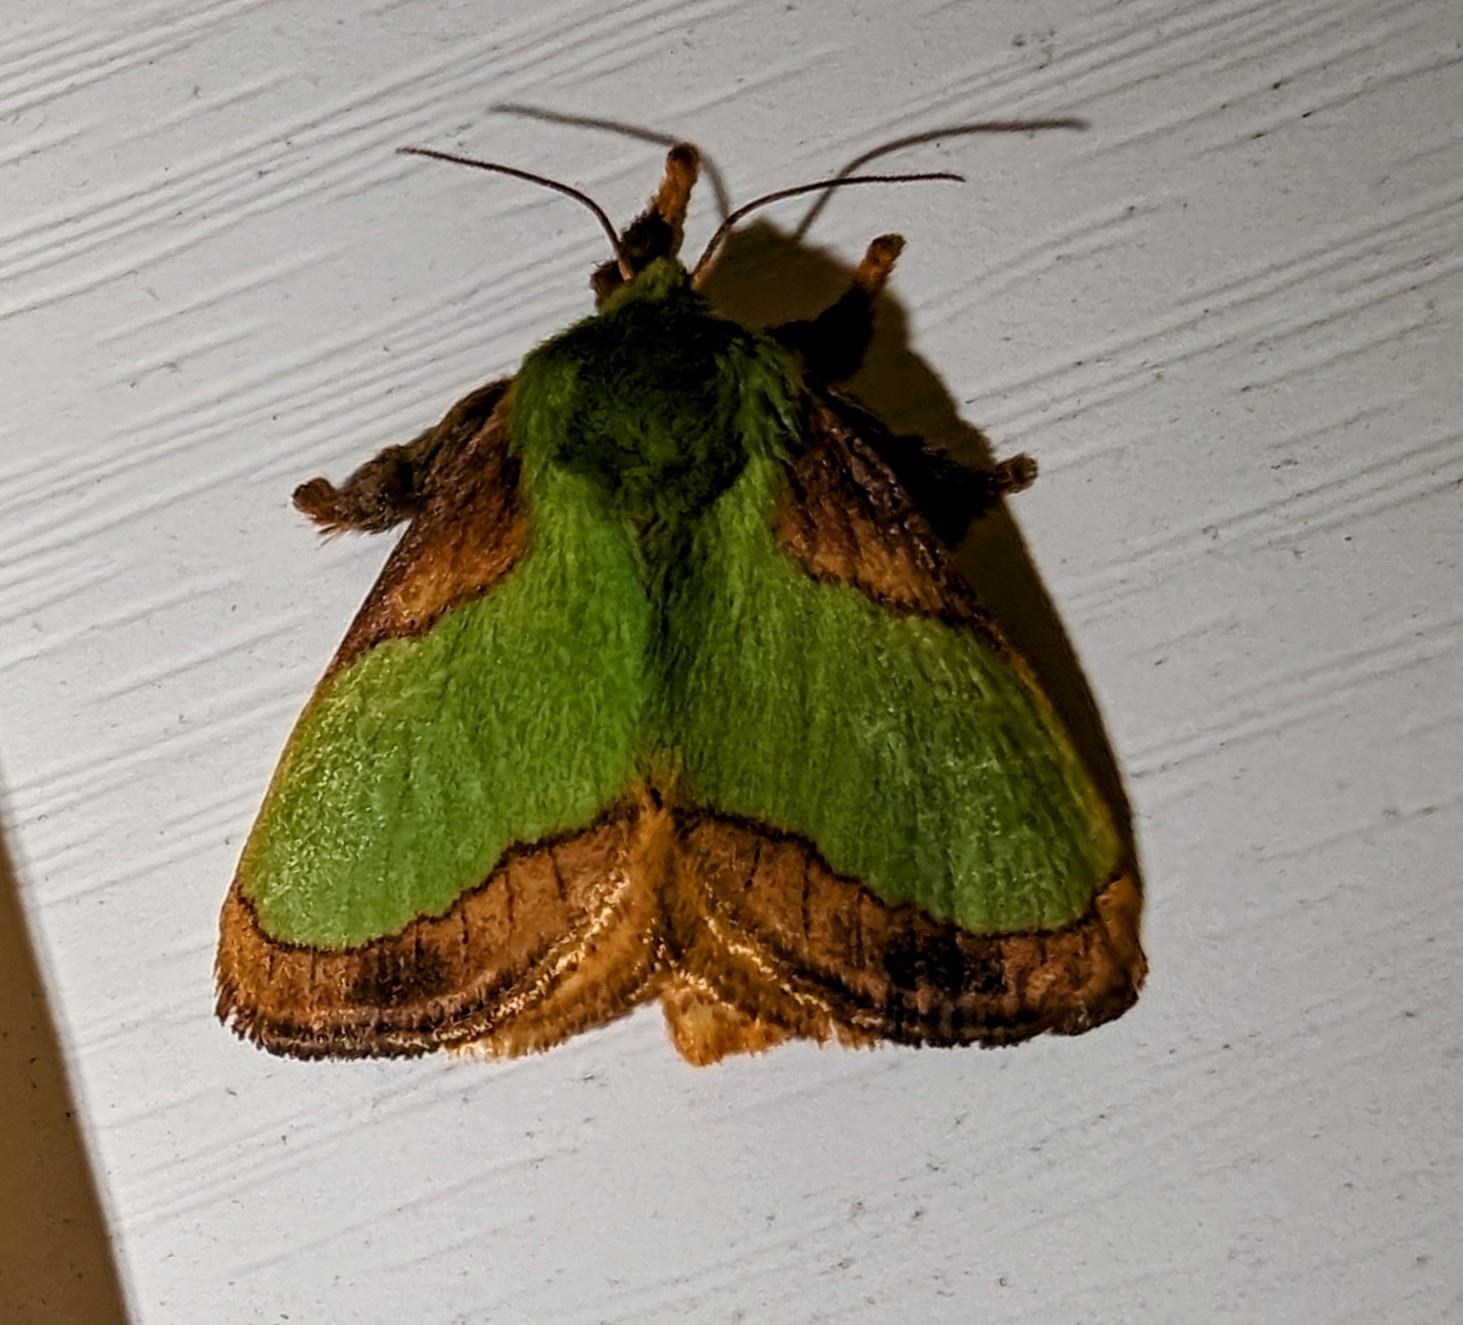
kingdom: Animalia
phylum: Arthropoda
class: Insecta
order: Lepidoptera
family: Limacodidae
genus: Parasa
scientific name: Parasa indetermina
